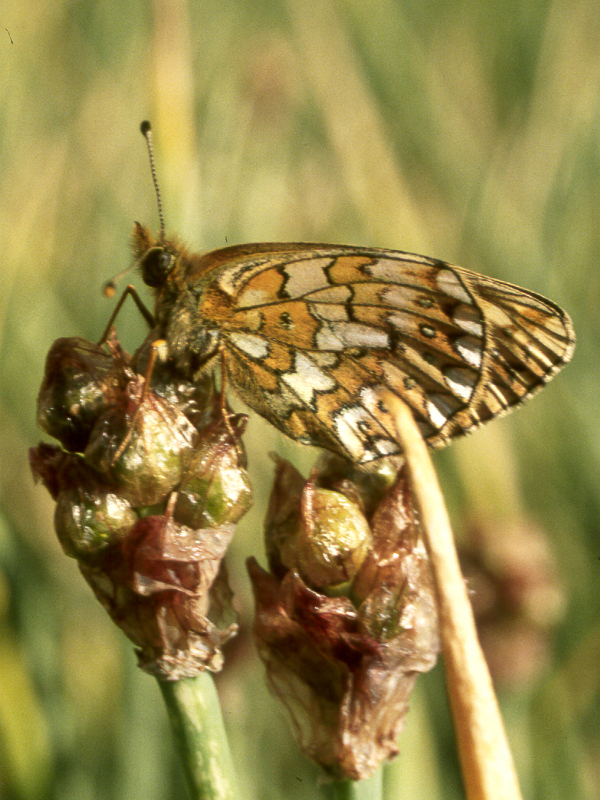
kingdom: Plantae
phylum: Tracheophyta
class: Liliopsida
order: Asparagales
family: Amaryllidaceae
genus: Allium
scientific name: Allium atrosanguineum
